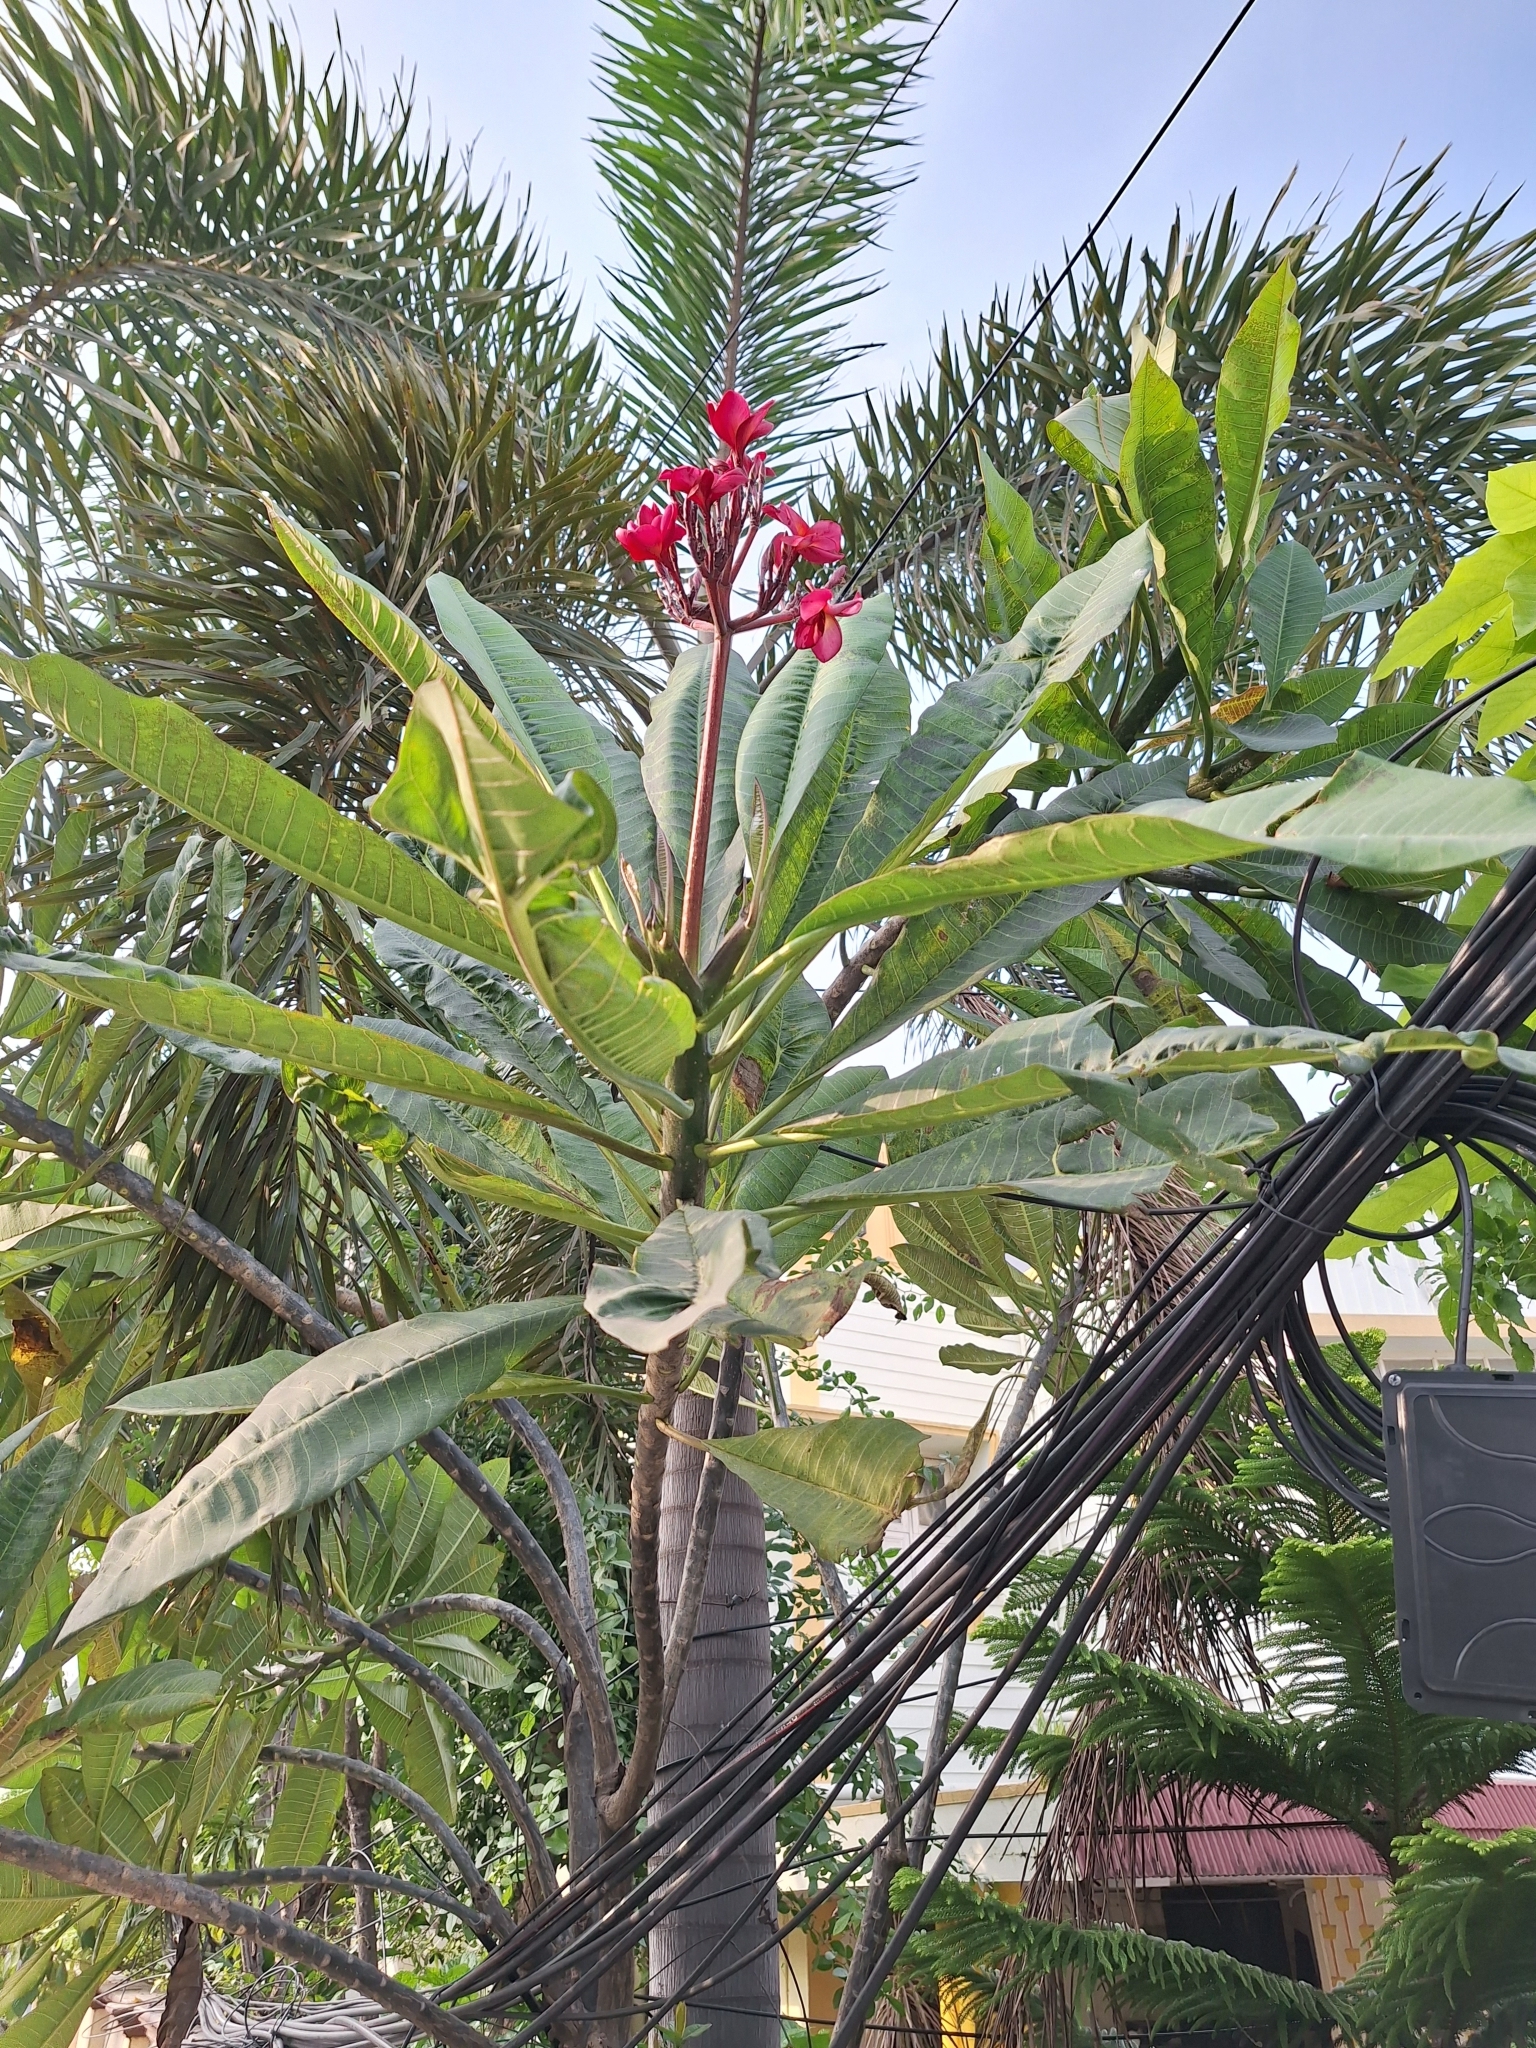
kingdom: Plantae
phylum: Tracheophyta
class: Magnoliopsida
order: Gentianales
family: Apocynaceae
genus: Plumeria
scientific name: Plumeria rubra
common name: Pagoda-tree
